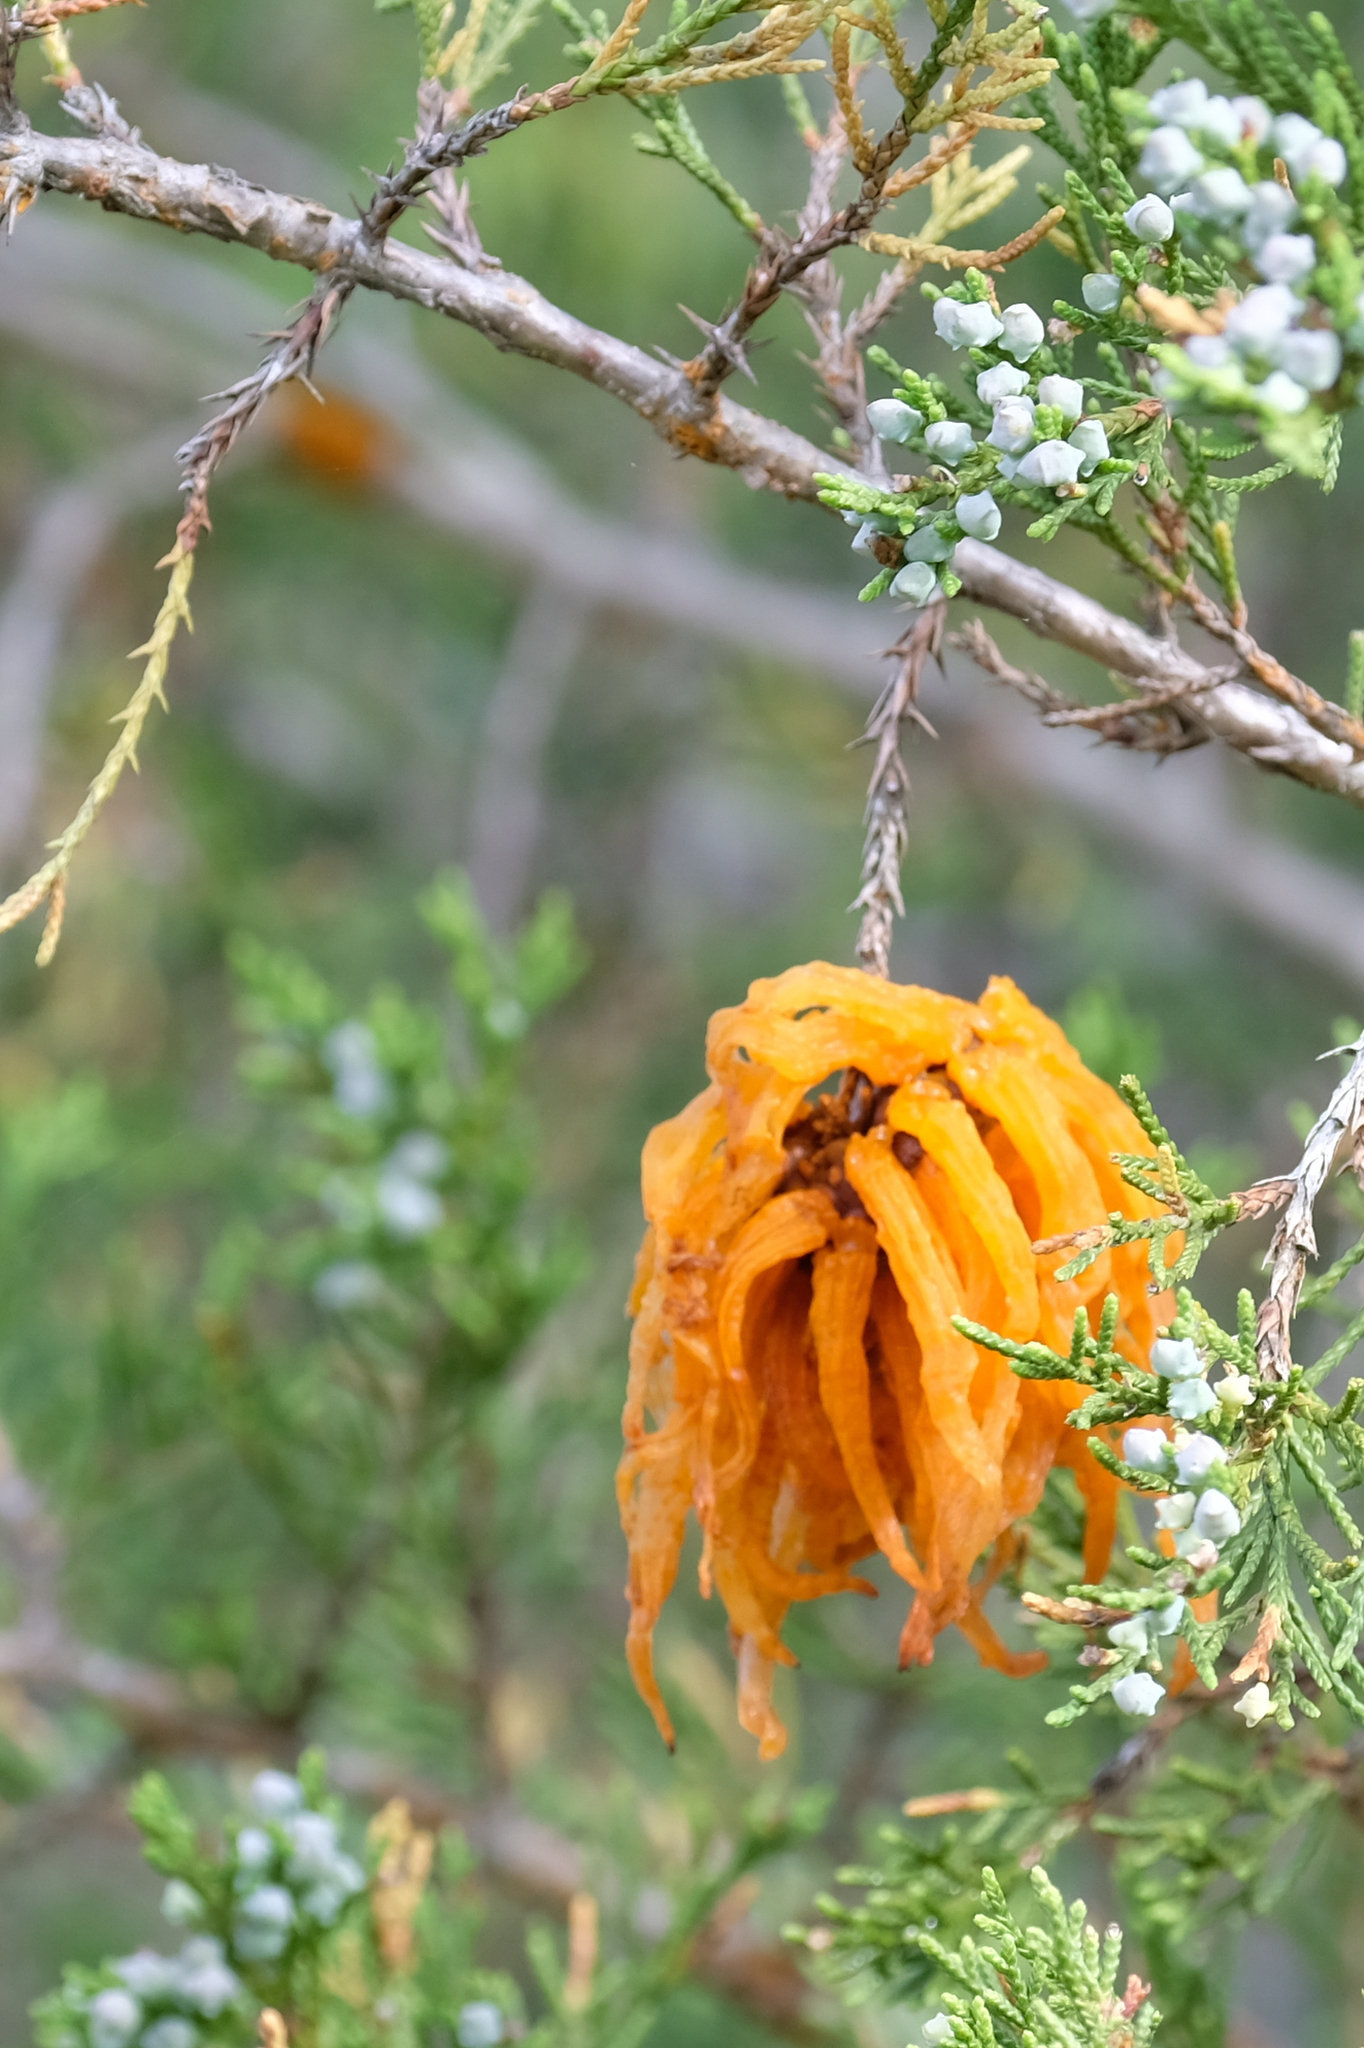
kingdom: Fungi
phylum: Basidiomycota
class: Pucciniomycetes
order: Pucciniales
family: Gymnosporangiaceae
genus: Gymnosporangium
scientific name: Gymnosporangium juniperi-virginianae
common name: Juniper-apple rust
